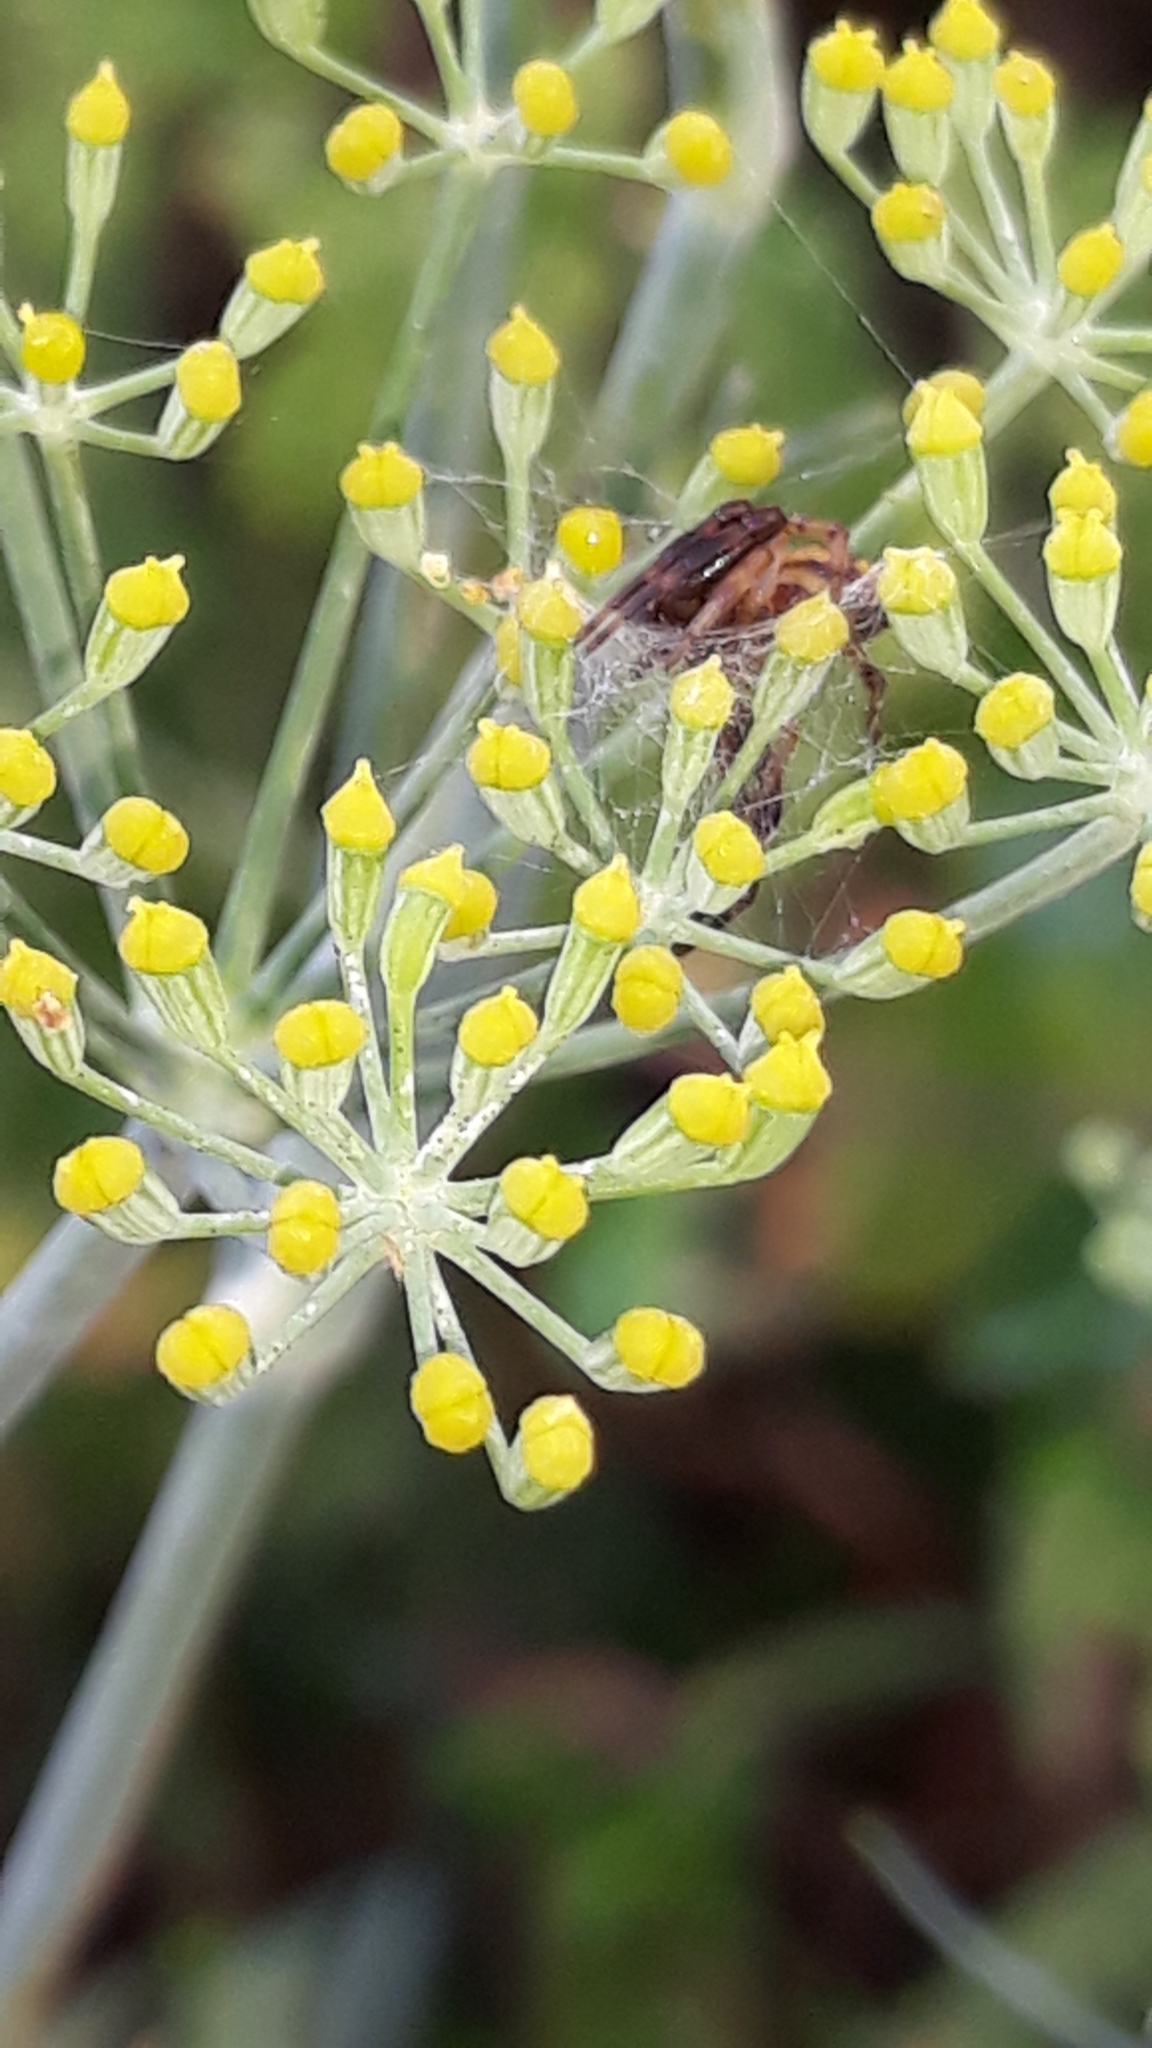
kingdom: Animalia
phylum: Arthropoda
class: Arachnida
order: Araneae
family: Thomisidae
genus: Synema
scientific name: Synema globosum
